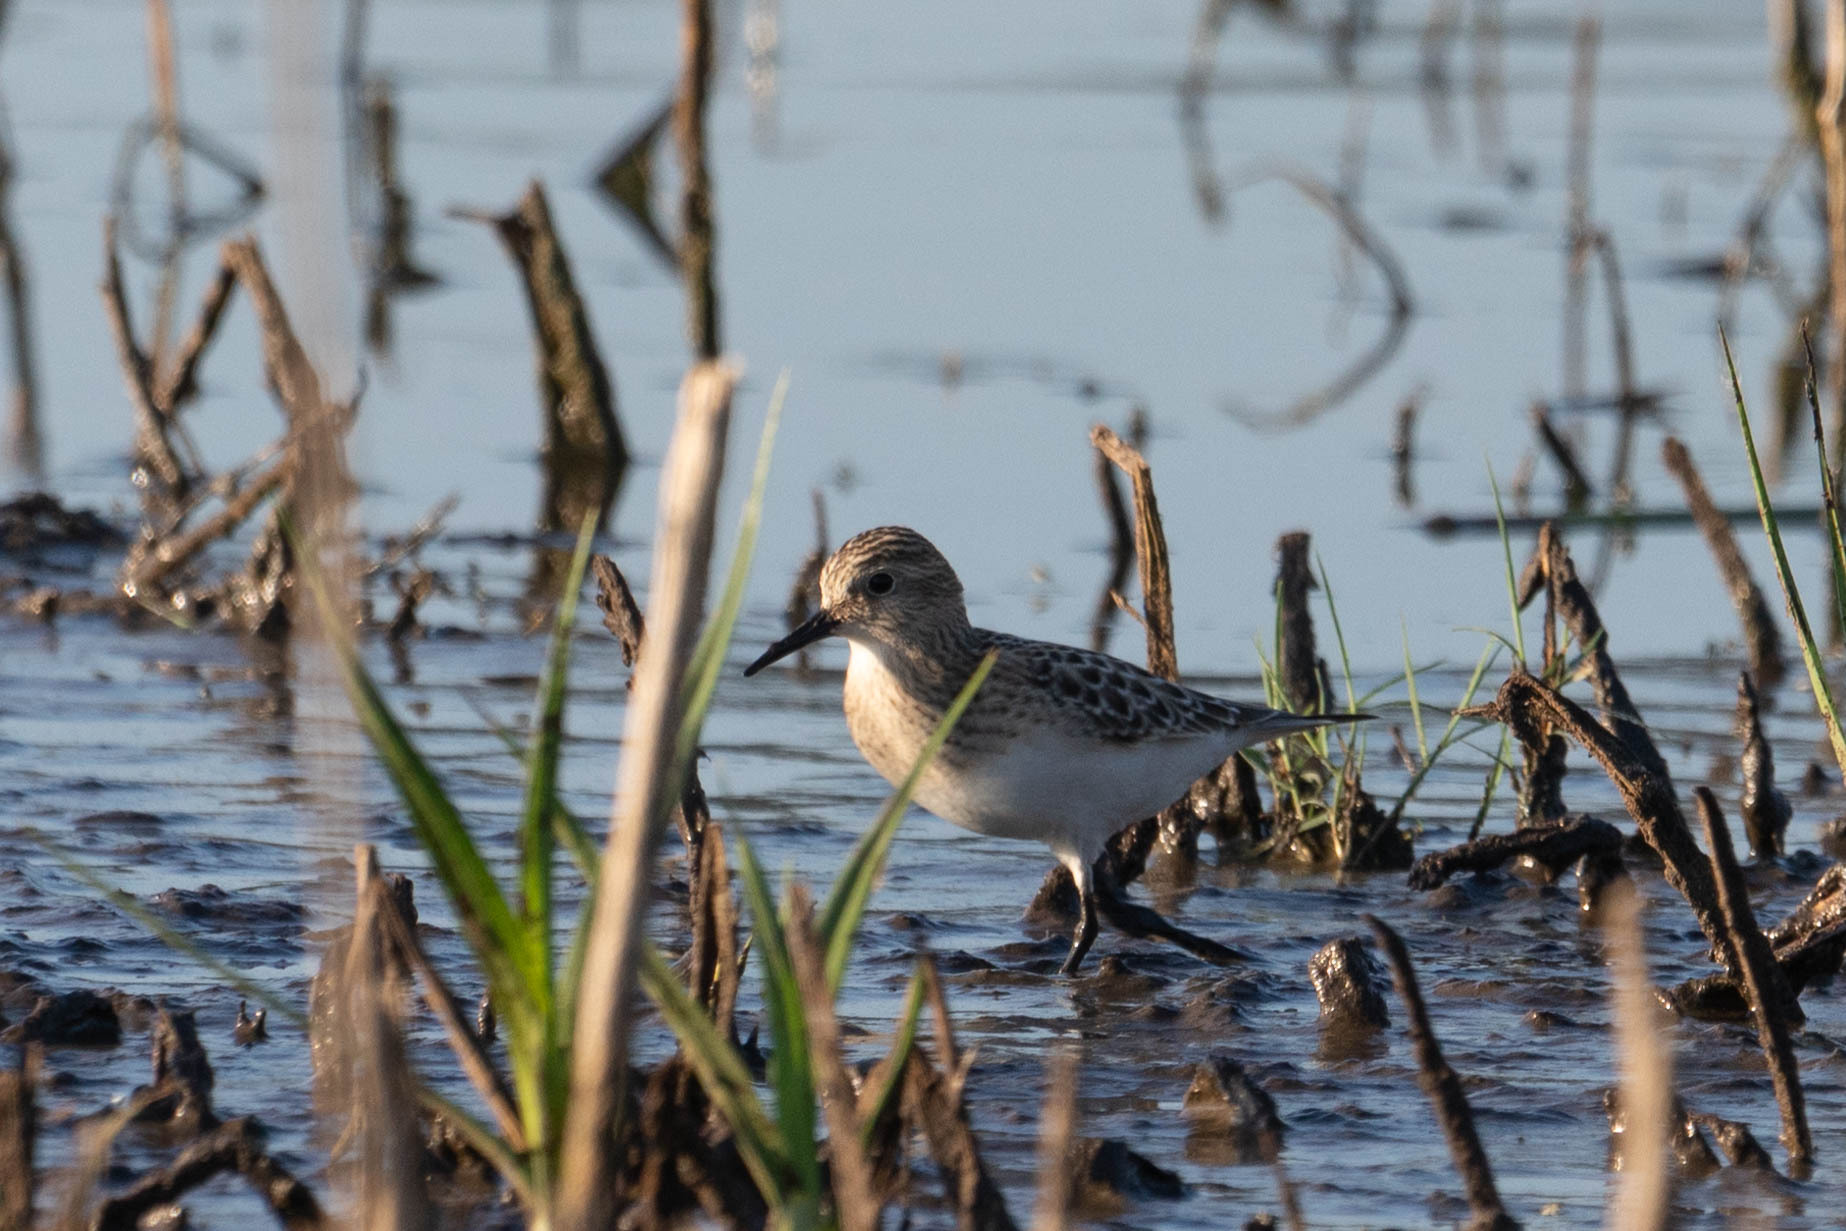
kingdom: Animalia
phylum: Chordata
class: Aves
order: Charadriiformes
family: Scolopacidae
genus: Calidris
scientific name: Calidris bairdii
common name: Baird's sandpiper
